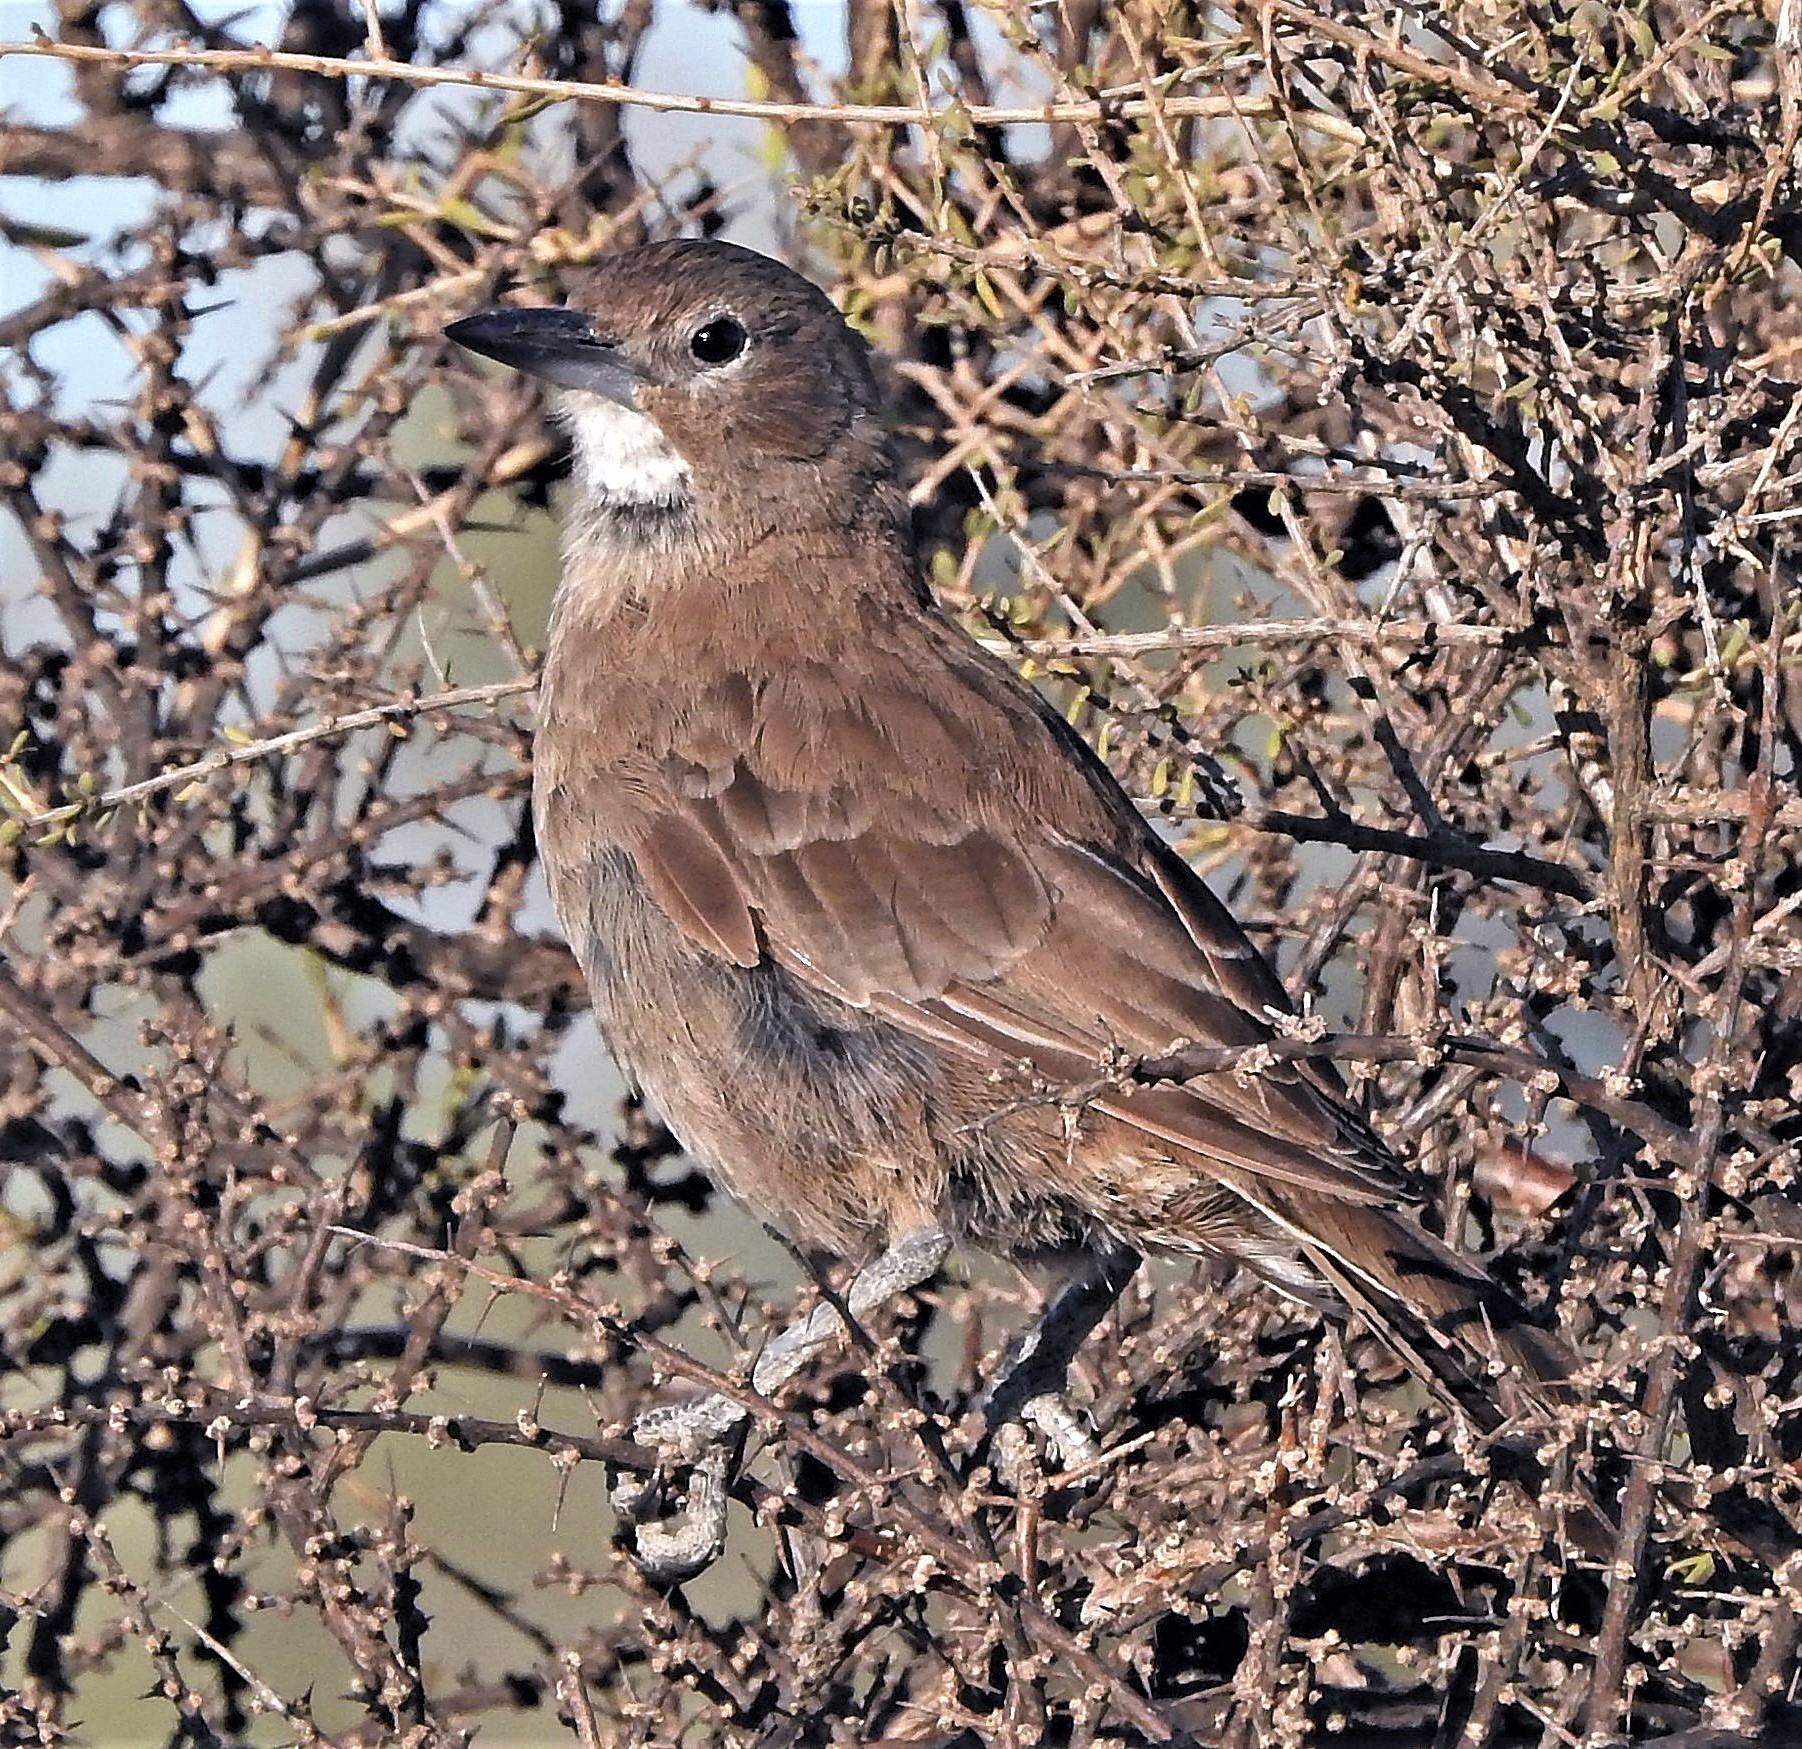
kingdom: Animalia
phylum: Chordata
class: Aves
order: Passeriformes
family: Furnariidae
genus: Pseudoseisura
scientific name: Pseudoseisura gutturalis
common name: White-throated cacholote
